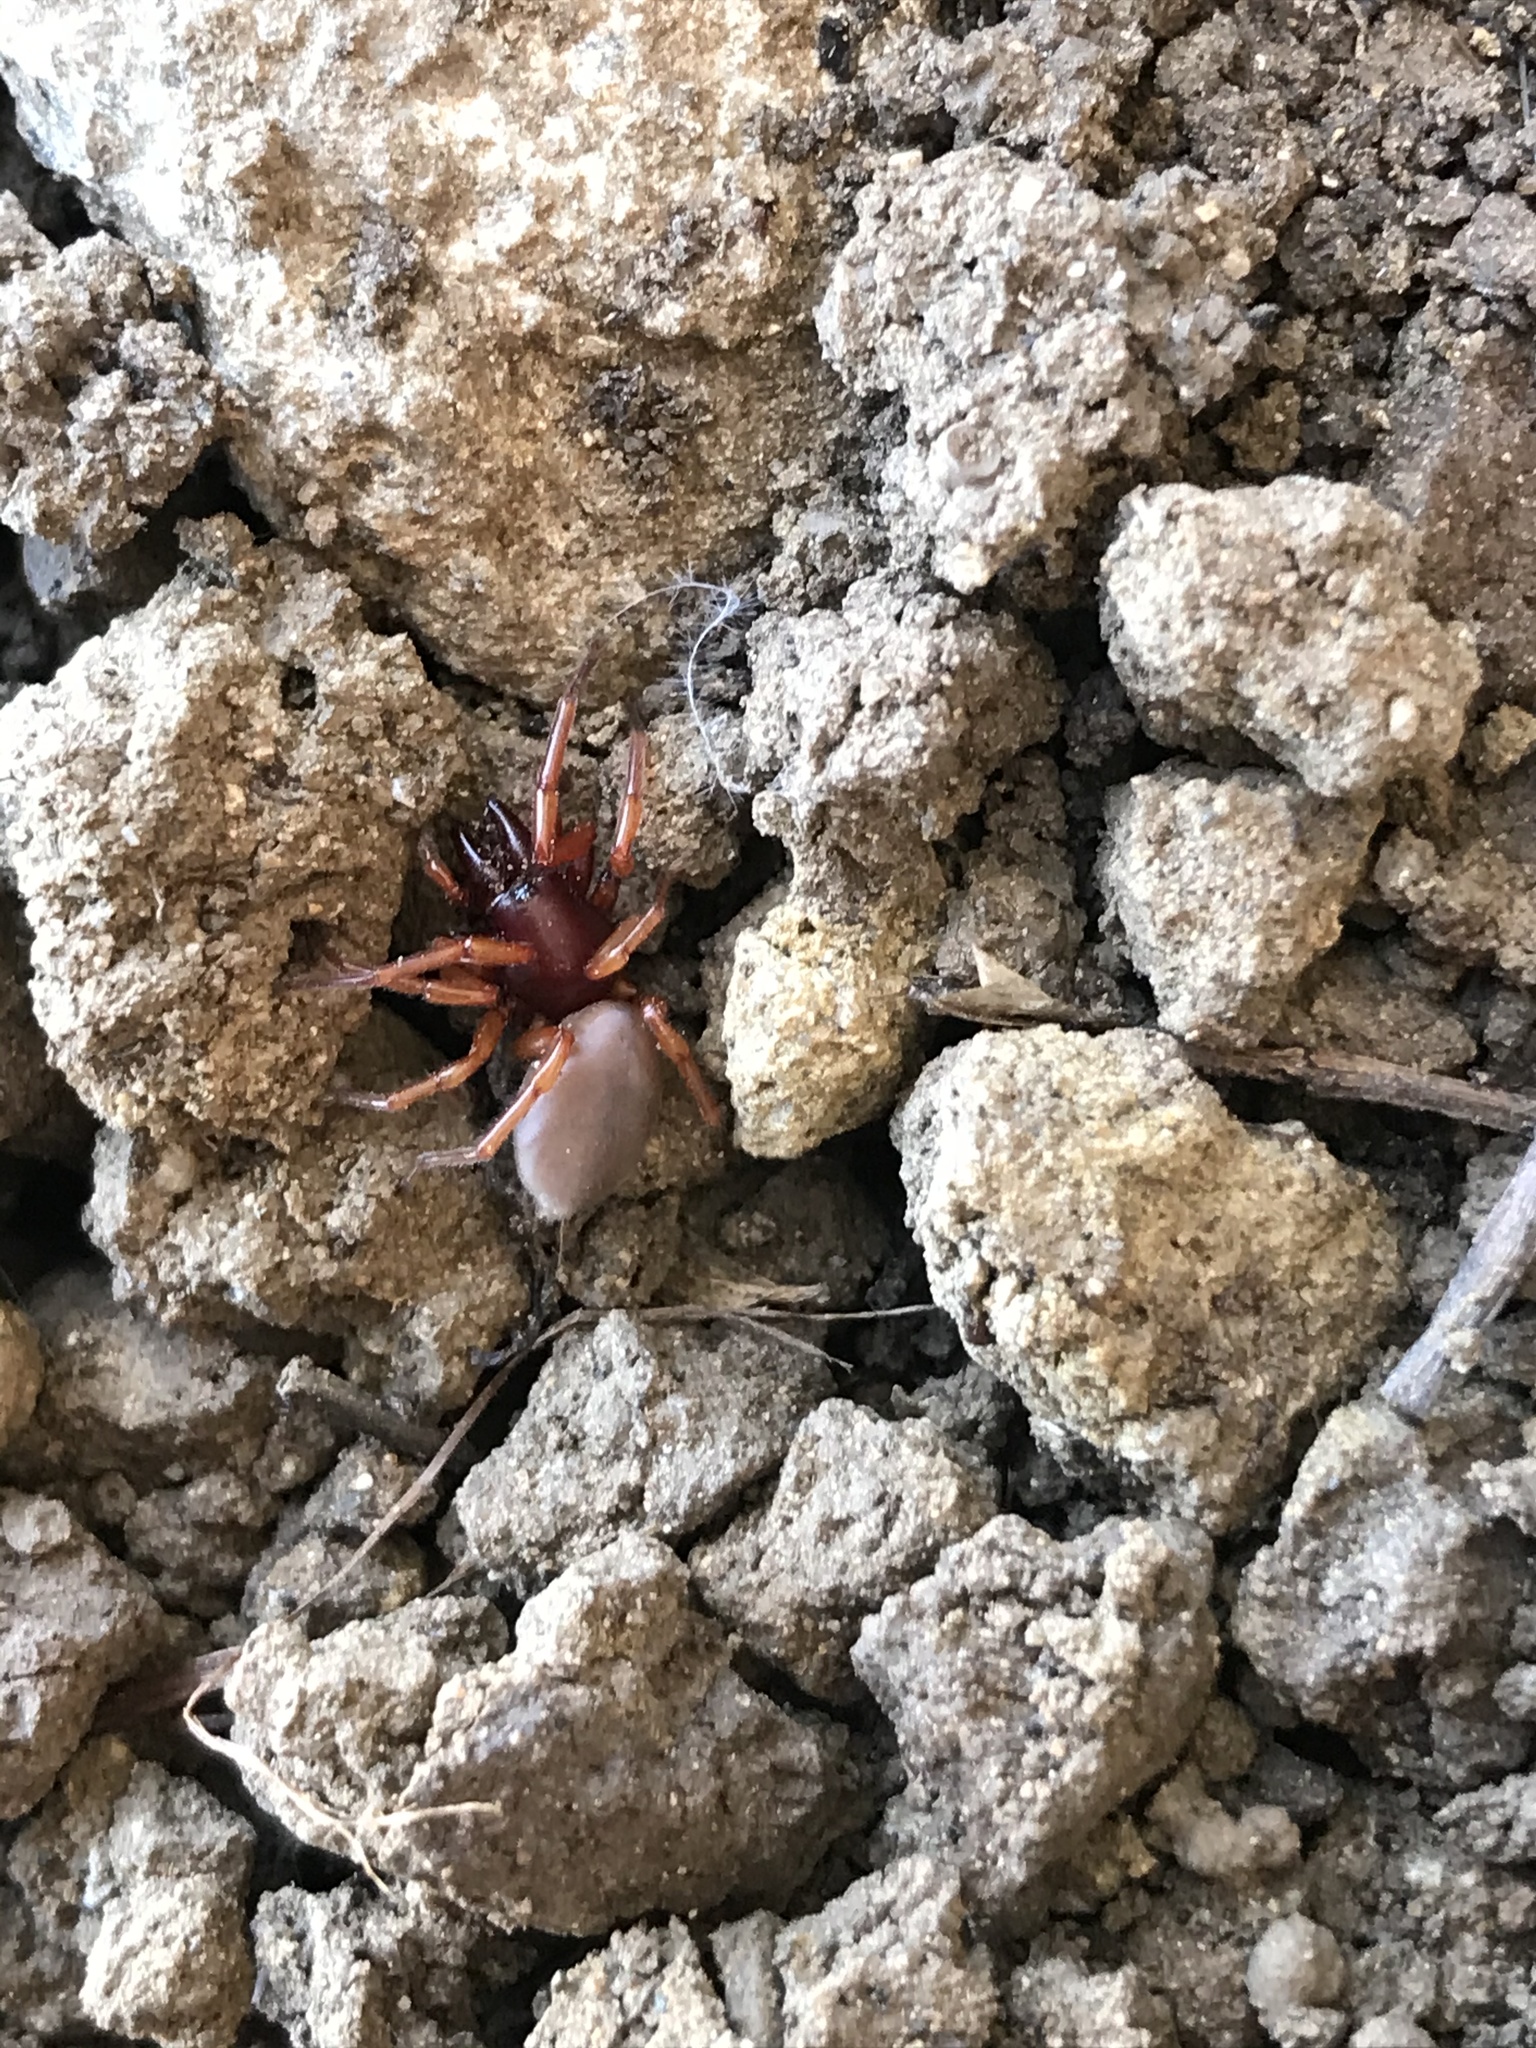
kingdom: Animalia
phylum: Arthropoda
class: Arachnida
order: Araneae
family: Dysderidae
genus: Dysdera
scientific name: Dysdera crocata
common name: Woodlouse spider
